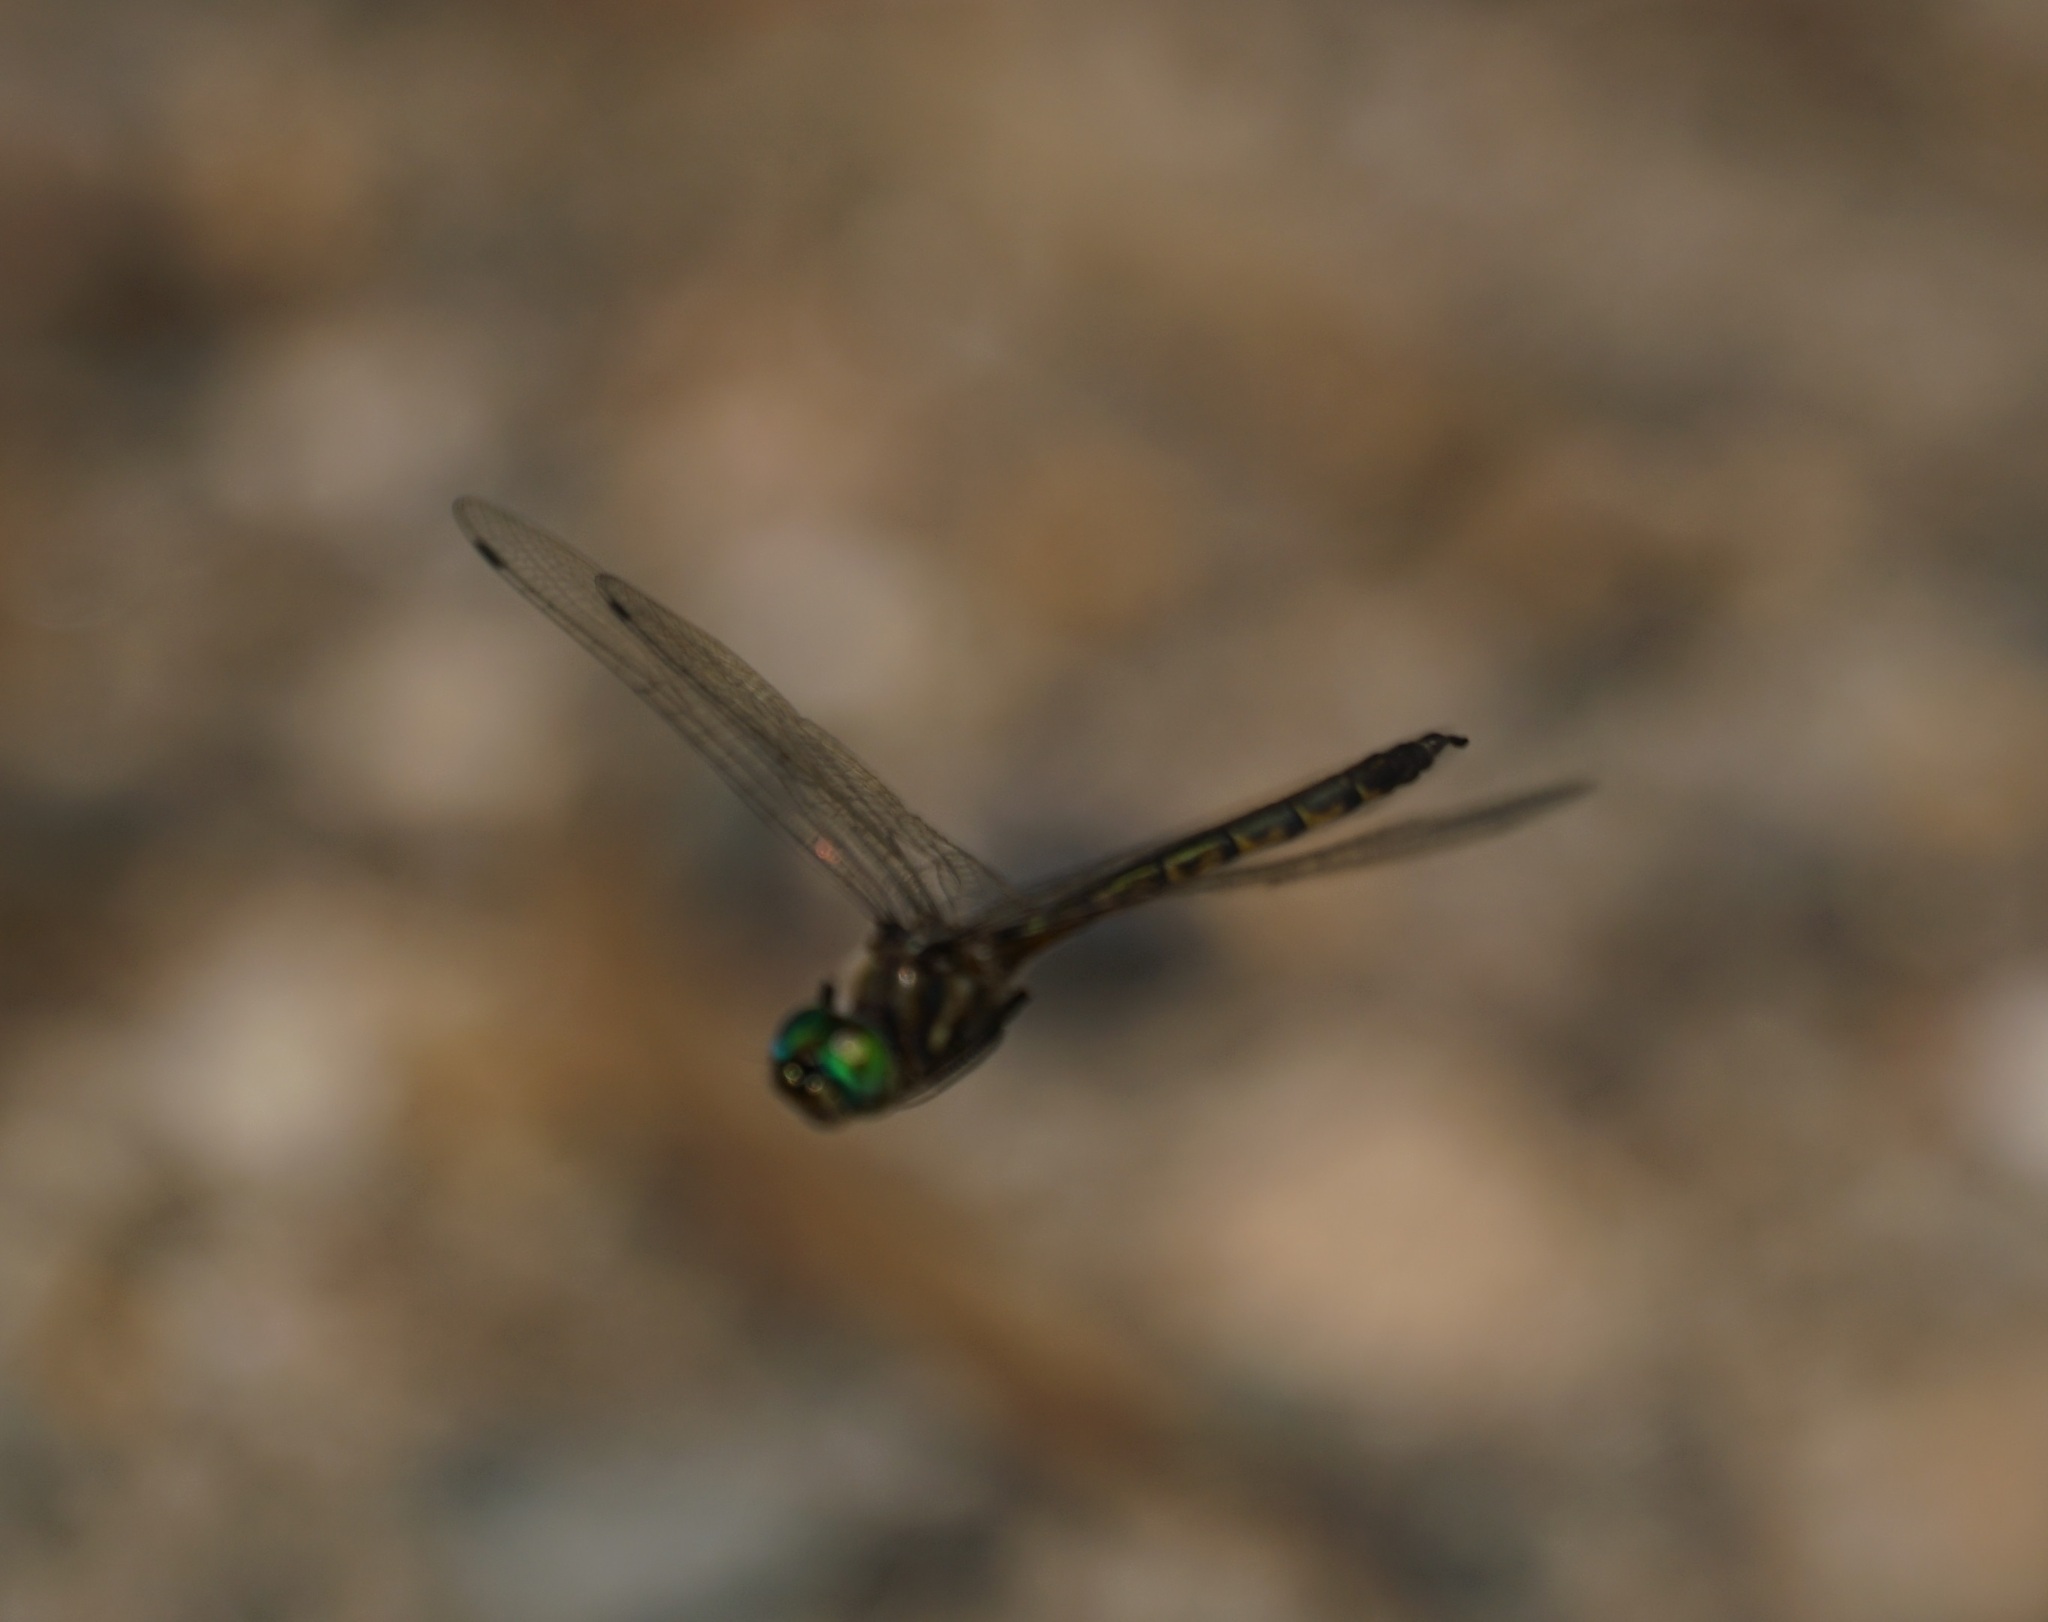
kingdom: Animalia
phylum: Arthropoda
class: Insecta
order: Odonata
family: Corduliidae
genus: Hemicordulia
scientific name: Hemicordulia australiae
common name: Sentry dragonfly
